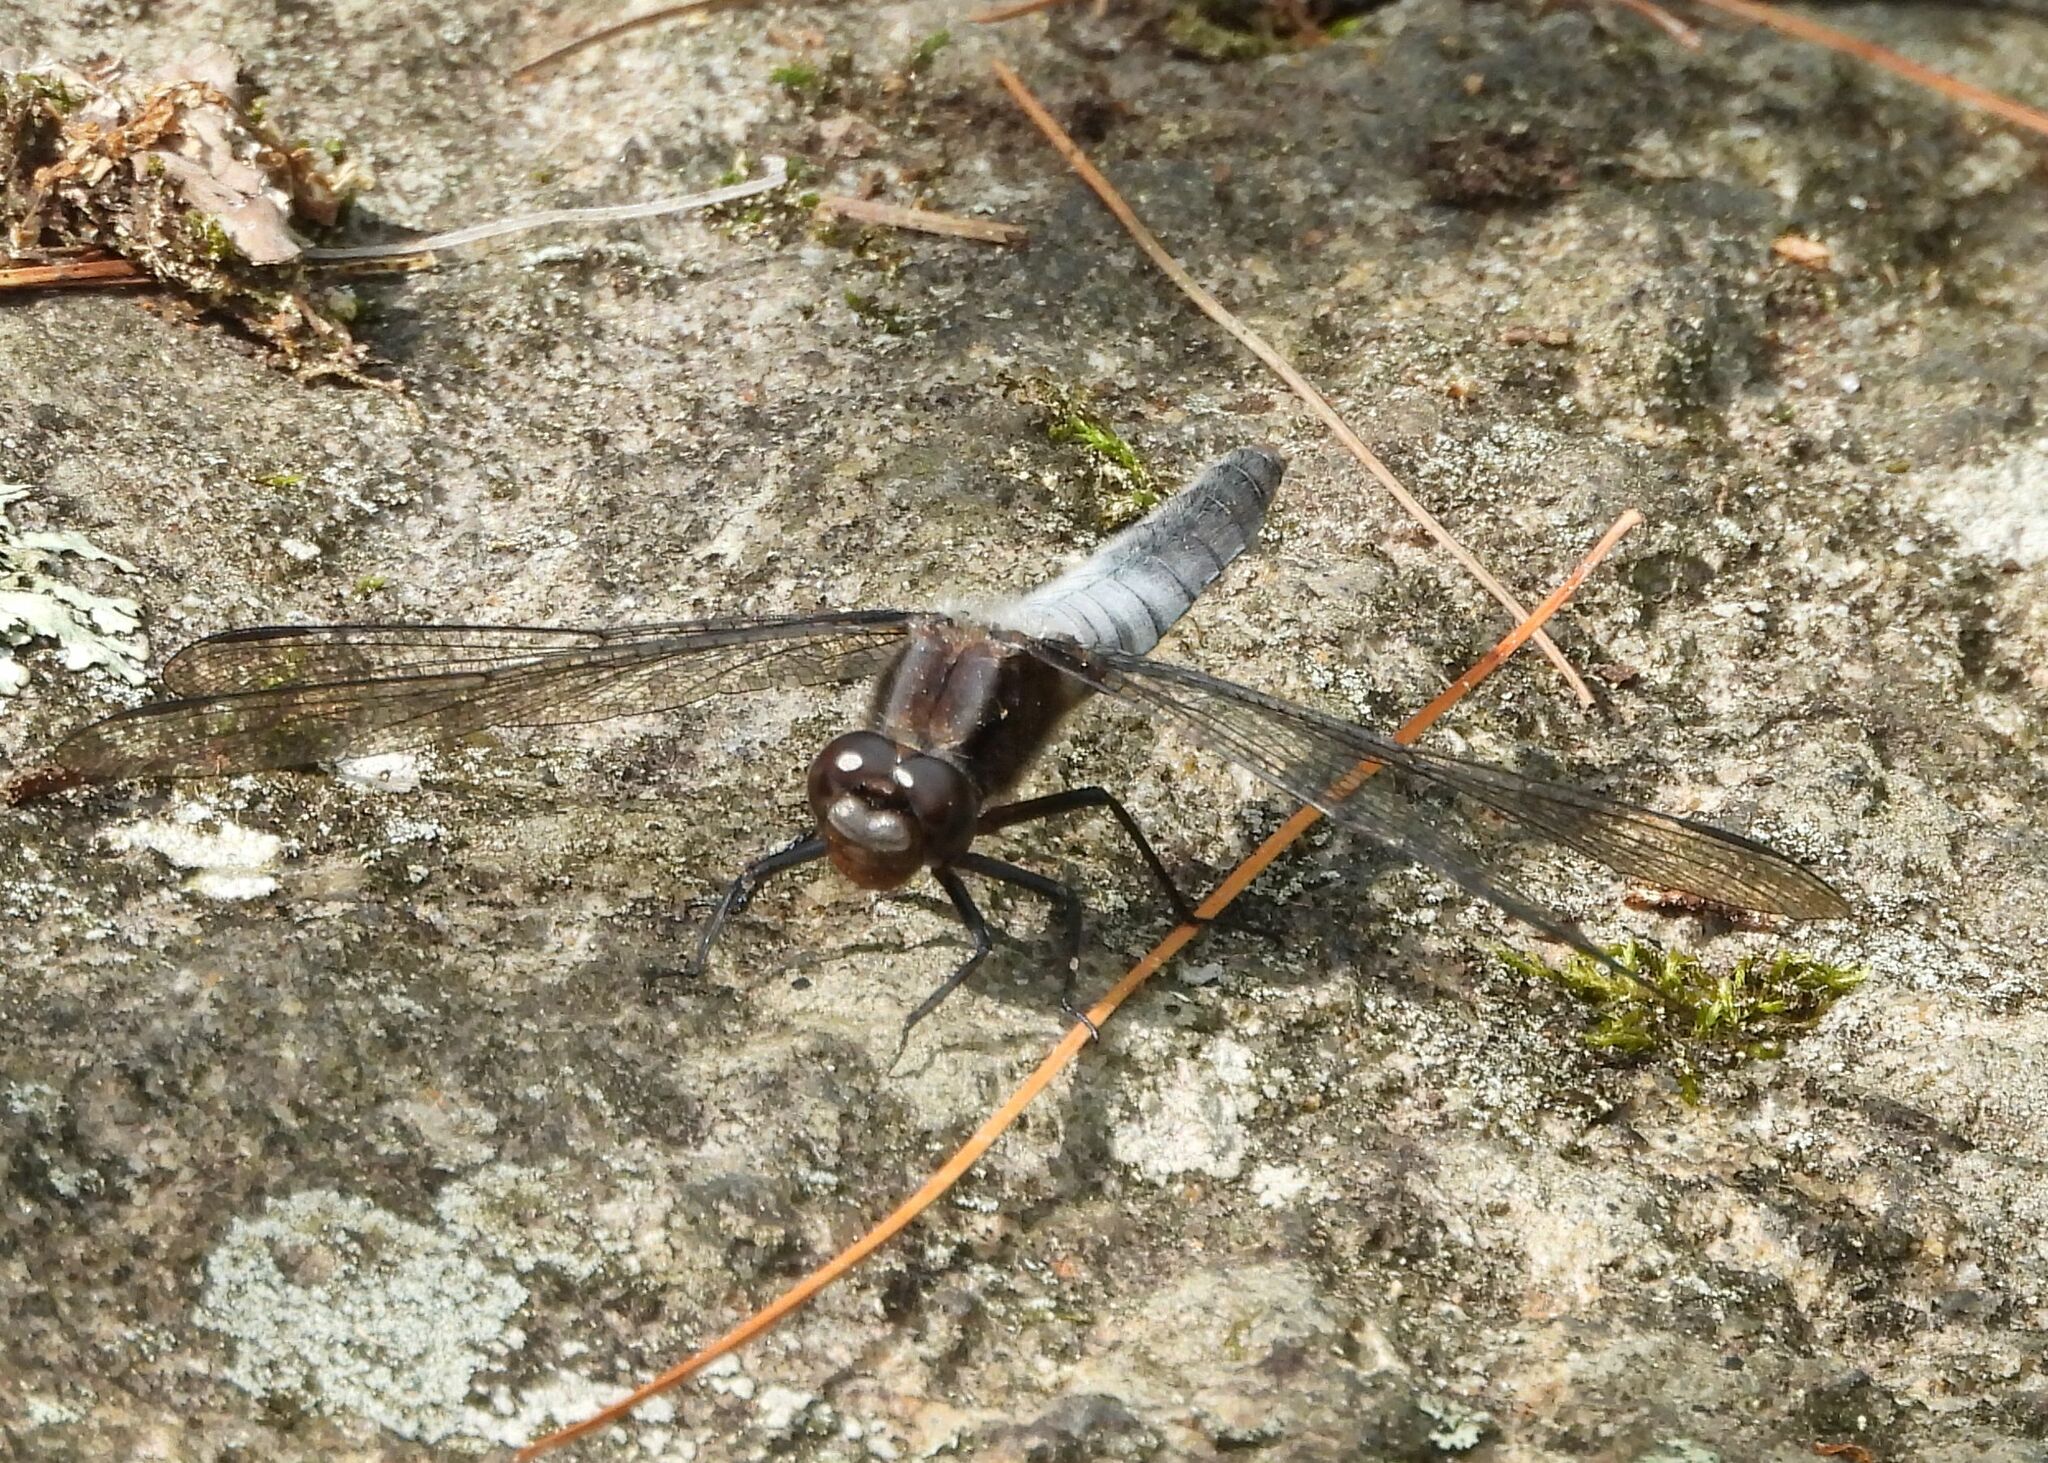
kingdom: Animalia
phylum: Arthropoda
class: Insecta
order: Odonata
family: Libellulidae
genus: Ladona
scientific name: Ladona julia
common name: Chalk-fronted corporal
